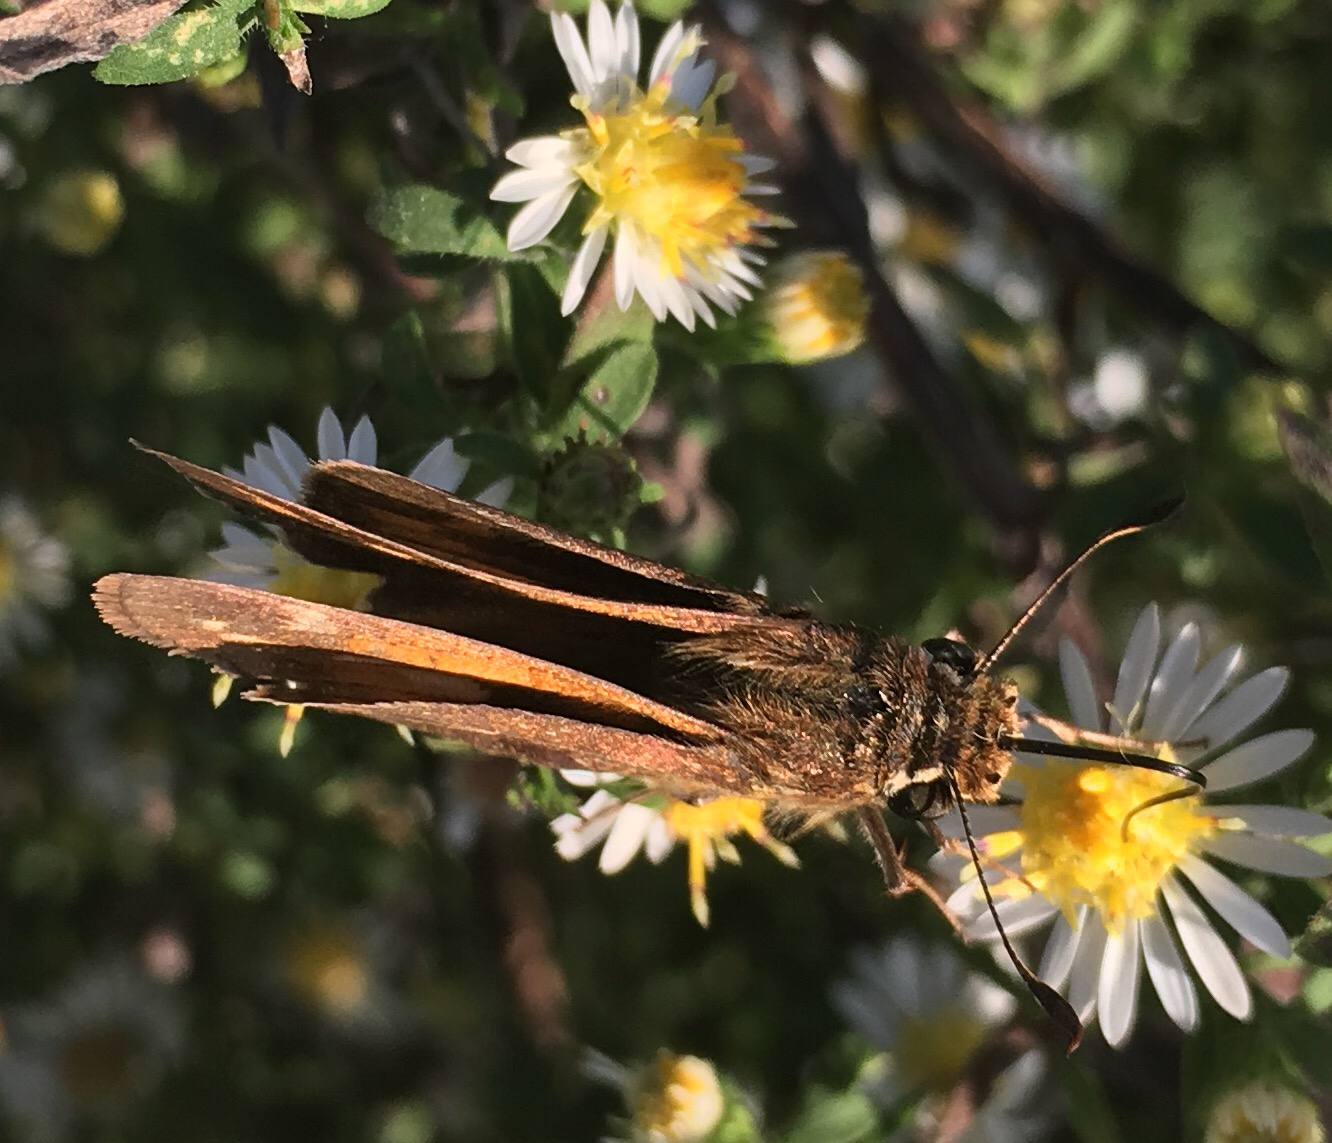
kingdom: Animalia
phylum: Arthropoda
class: Insecta
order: Lepidoptera
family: Hesperiidae
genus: Atalopedes
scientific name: Atalopedes
